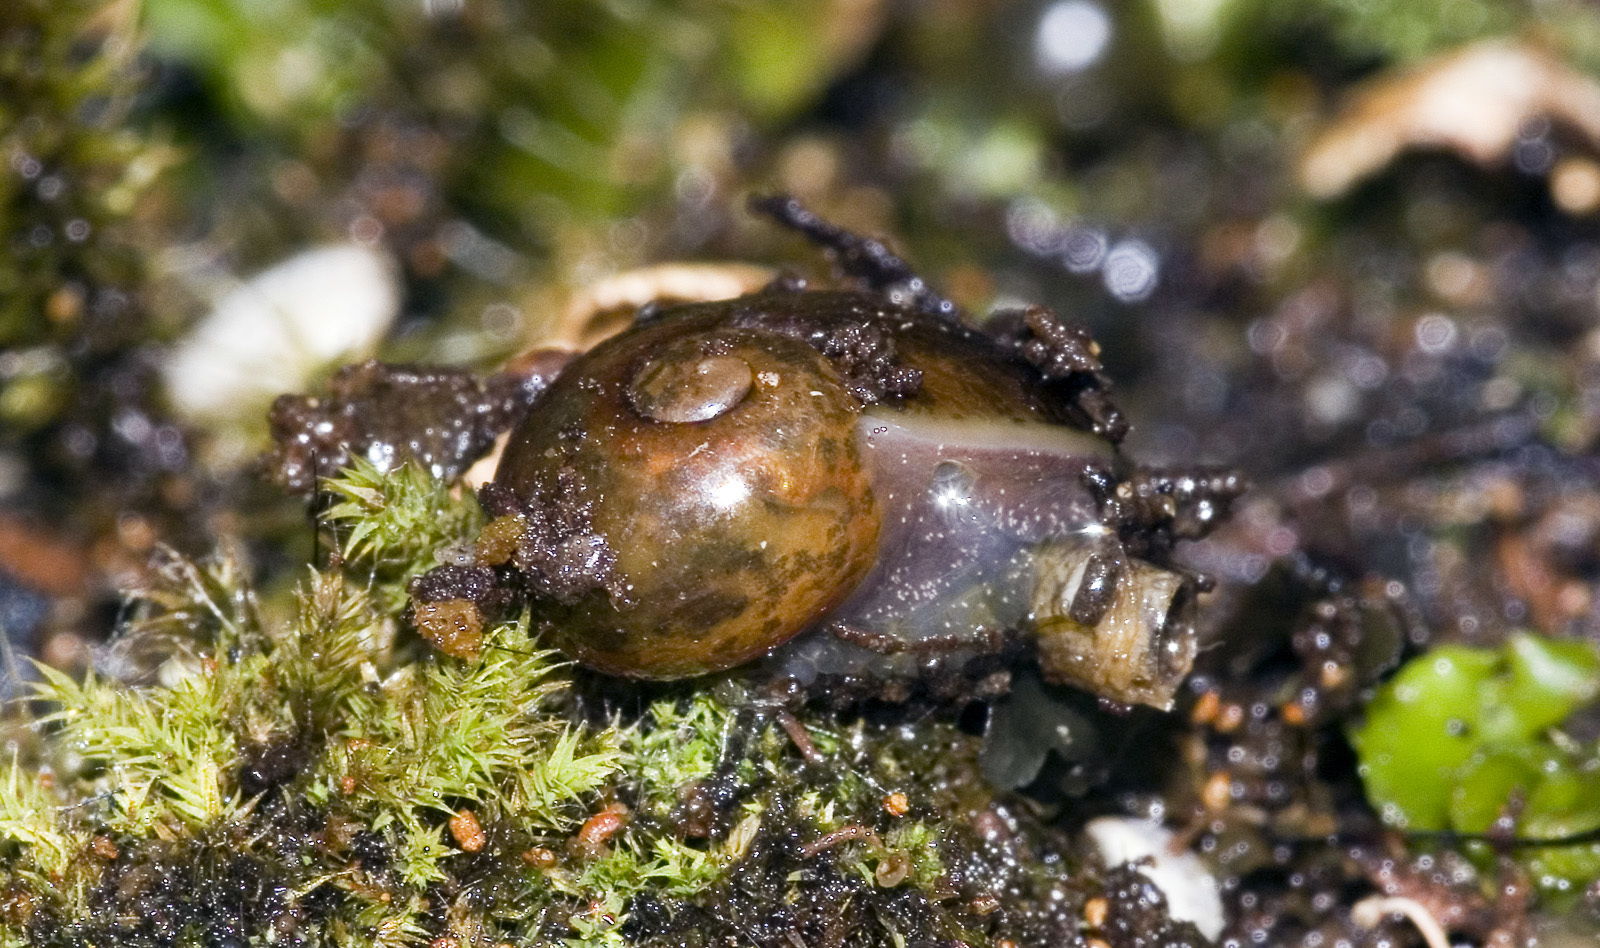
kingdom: Animalia
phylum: Mollusca
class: Gastropoda
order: Stylommatophora
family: Rhytididae
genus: Wainuia
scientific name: Wainuia urnula
